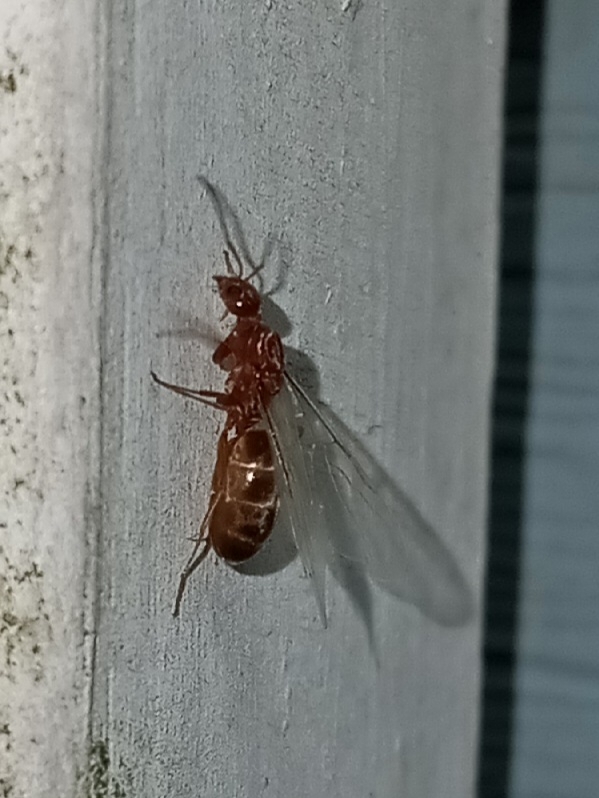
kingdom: Animalia
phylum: Arthropoda
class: Insecta
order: Hymenoptera
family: Formicidae
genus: Dorymyrmex
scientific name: Dorymyrmex bureni
